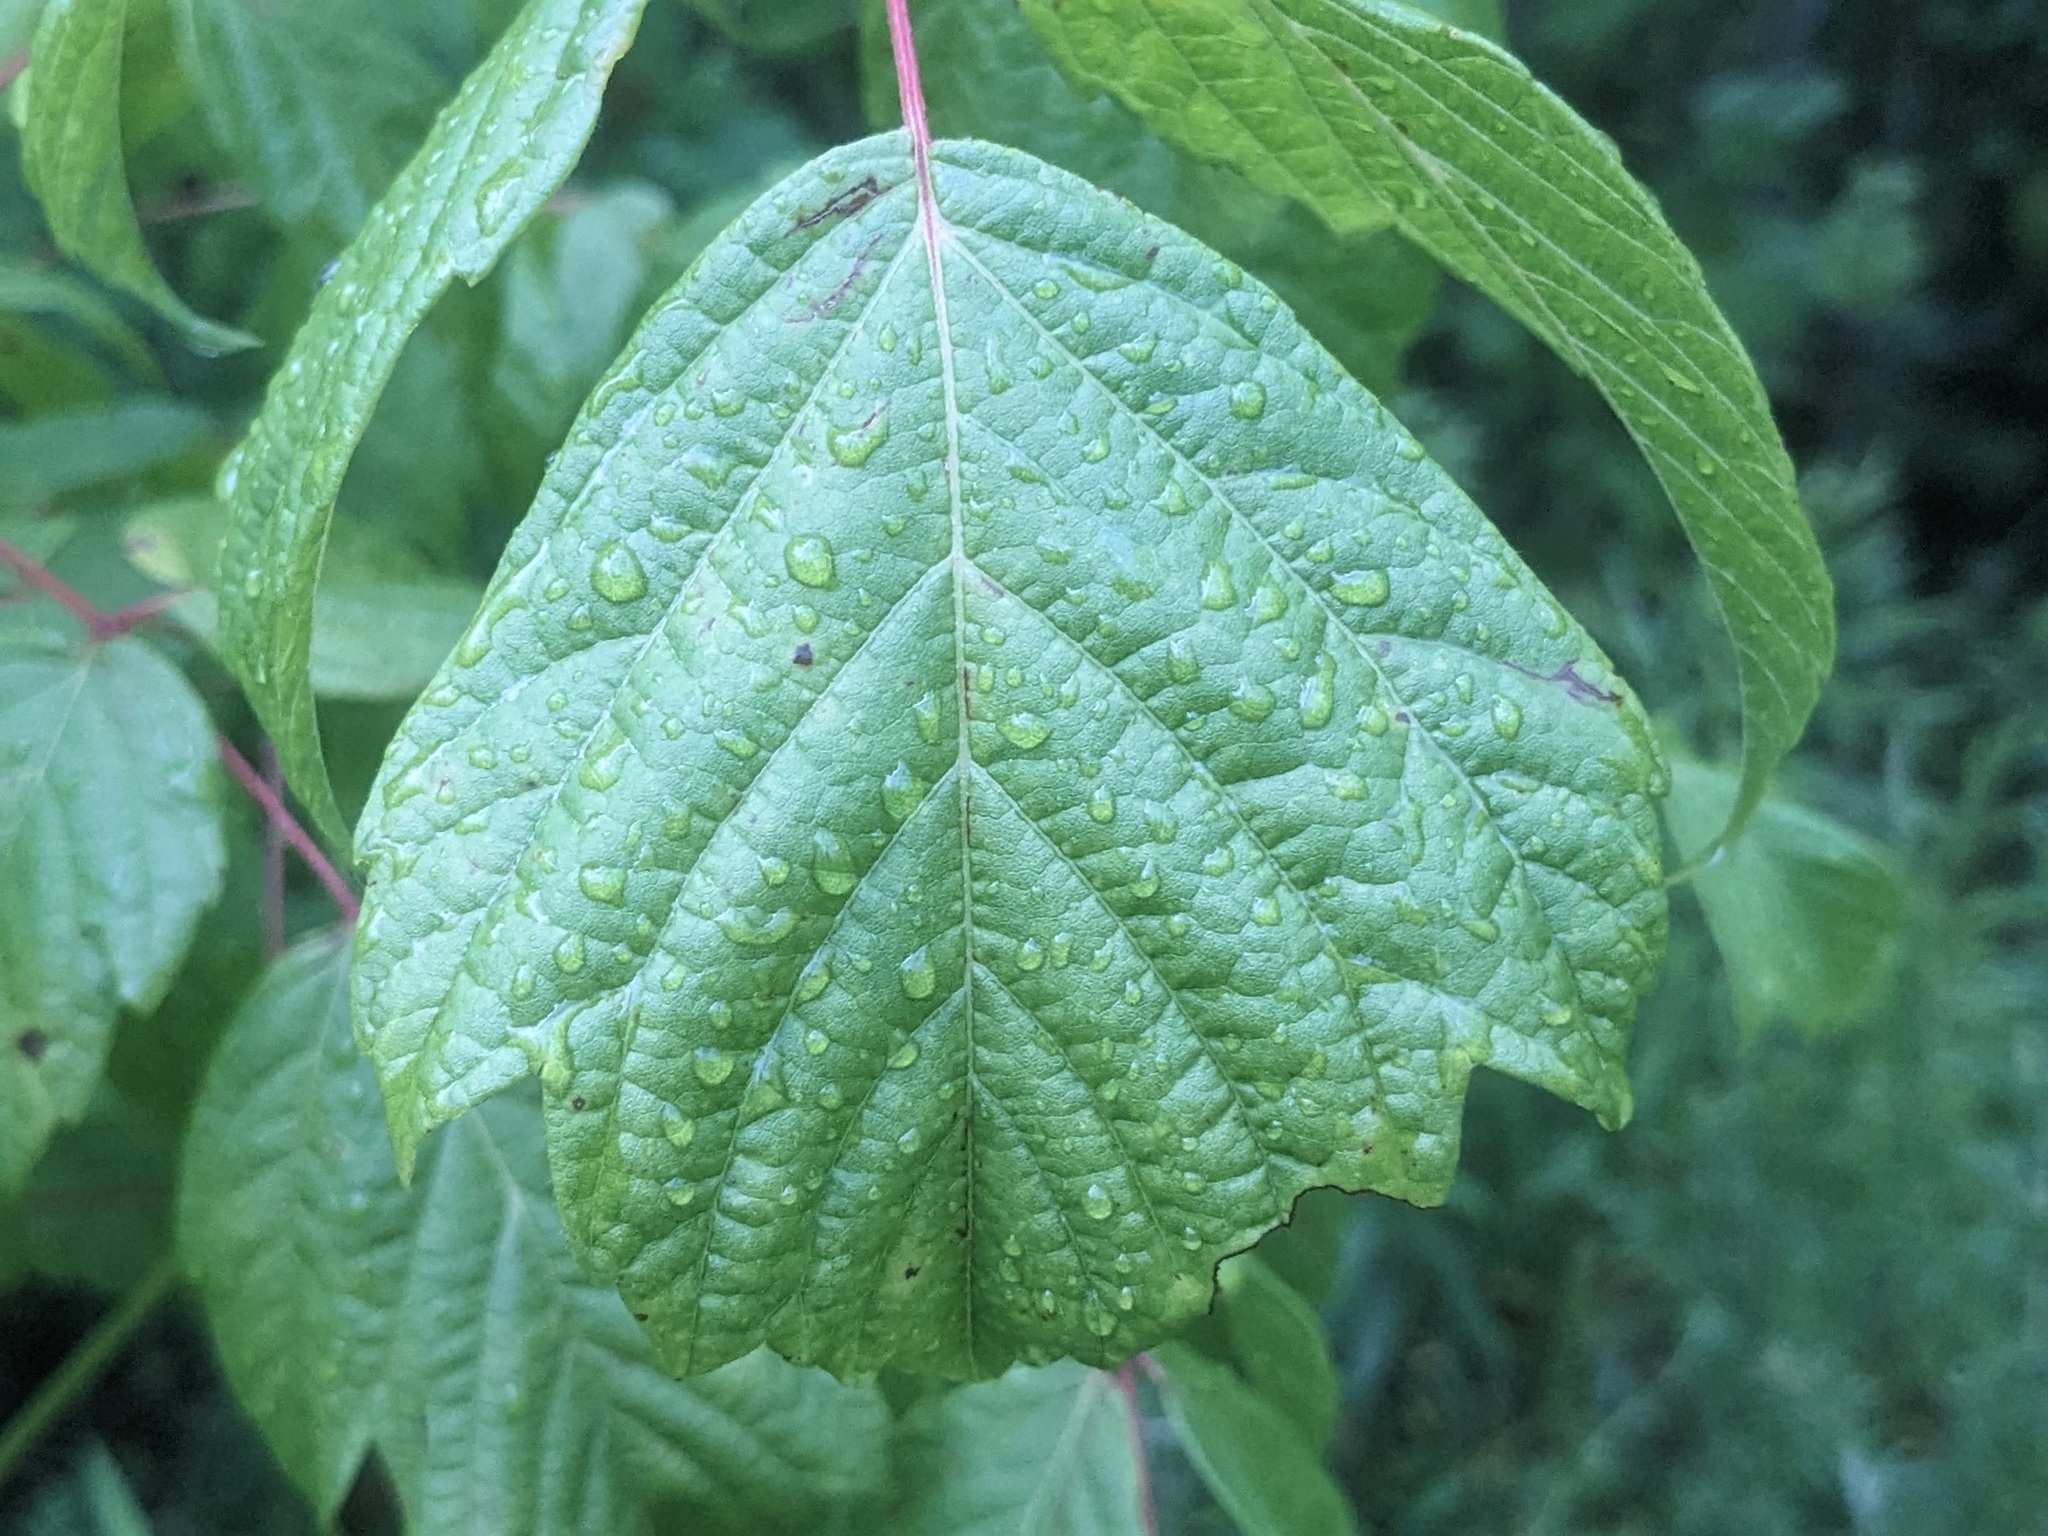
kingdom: Plantae
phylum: Tracheophyta
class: Magnoliopsida
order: Sapindales
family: Sapindaceae
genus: Acer
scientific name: Acer negundo
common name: Ashleaf maple
